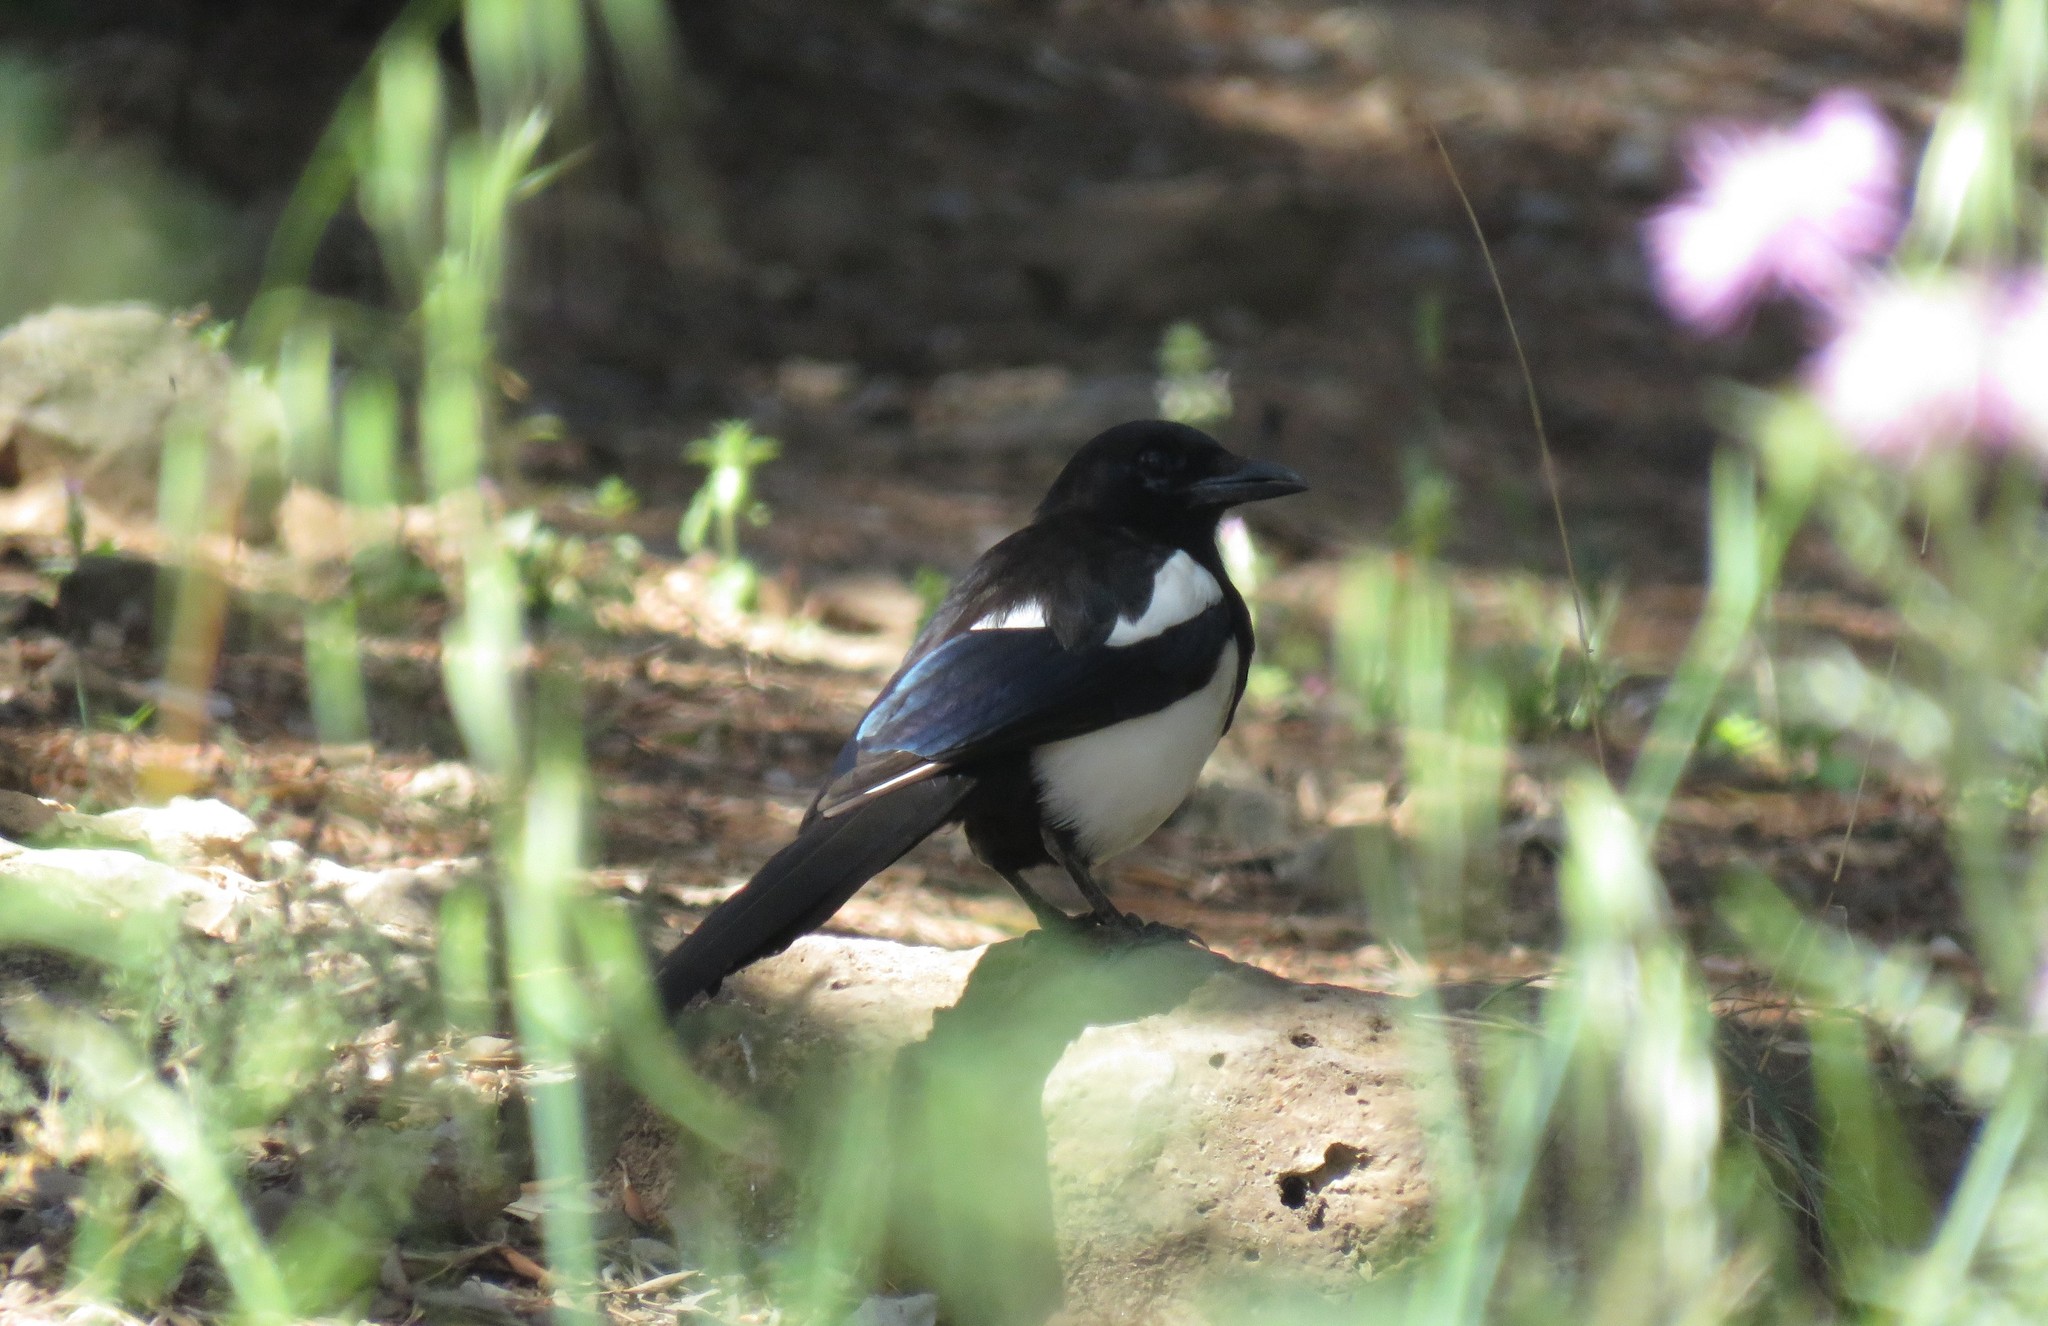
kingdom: Animalia
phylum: Chordata
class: Aves
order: Passeriformes
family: Corvidae
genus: Pica
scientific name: Pica pica
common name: Eurasian magpie
